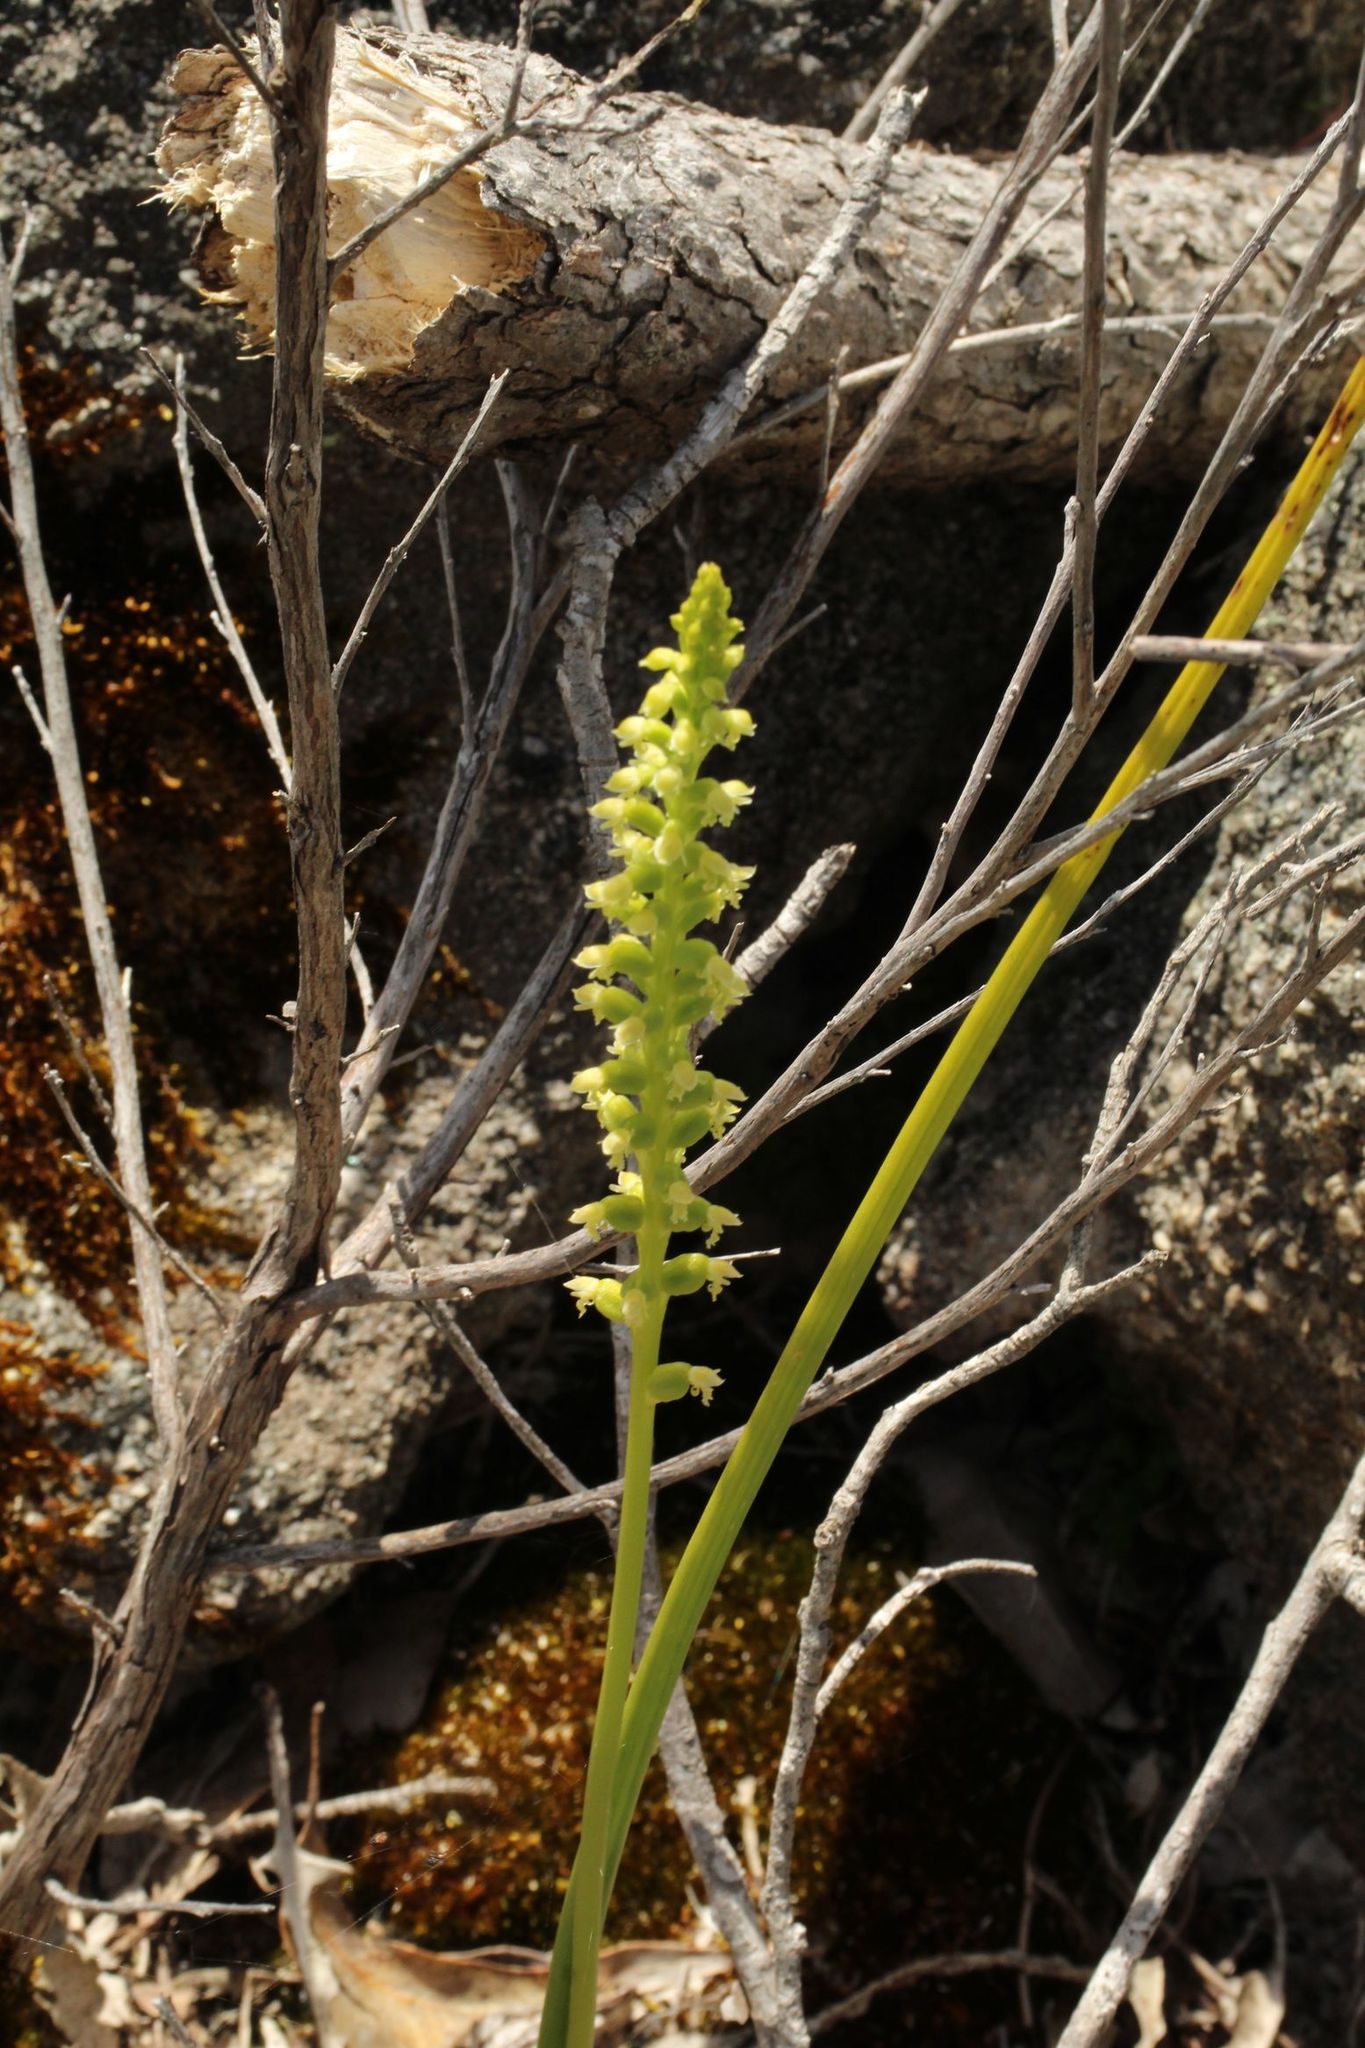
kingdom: Plantae
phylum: Tracheophyta
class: Liliopsida
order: Asparagales
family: Orchidaceae
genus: Microtis
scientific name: Microtis media
